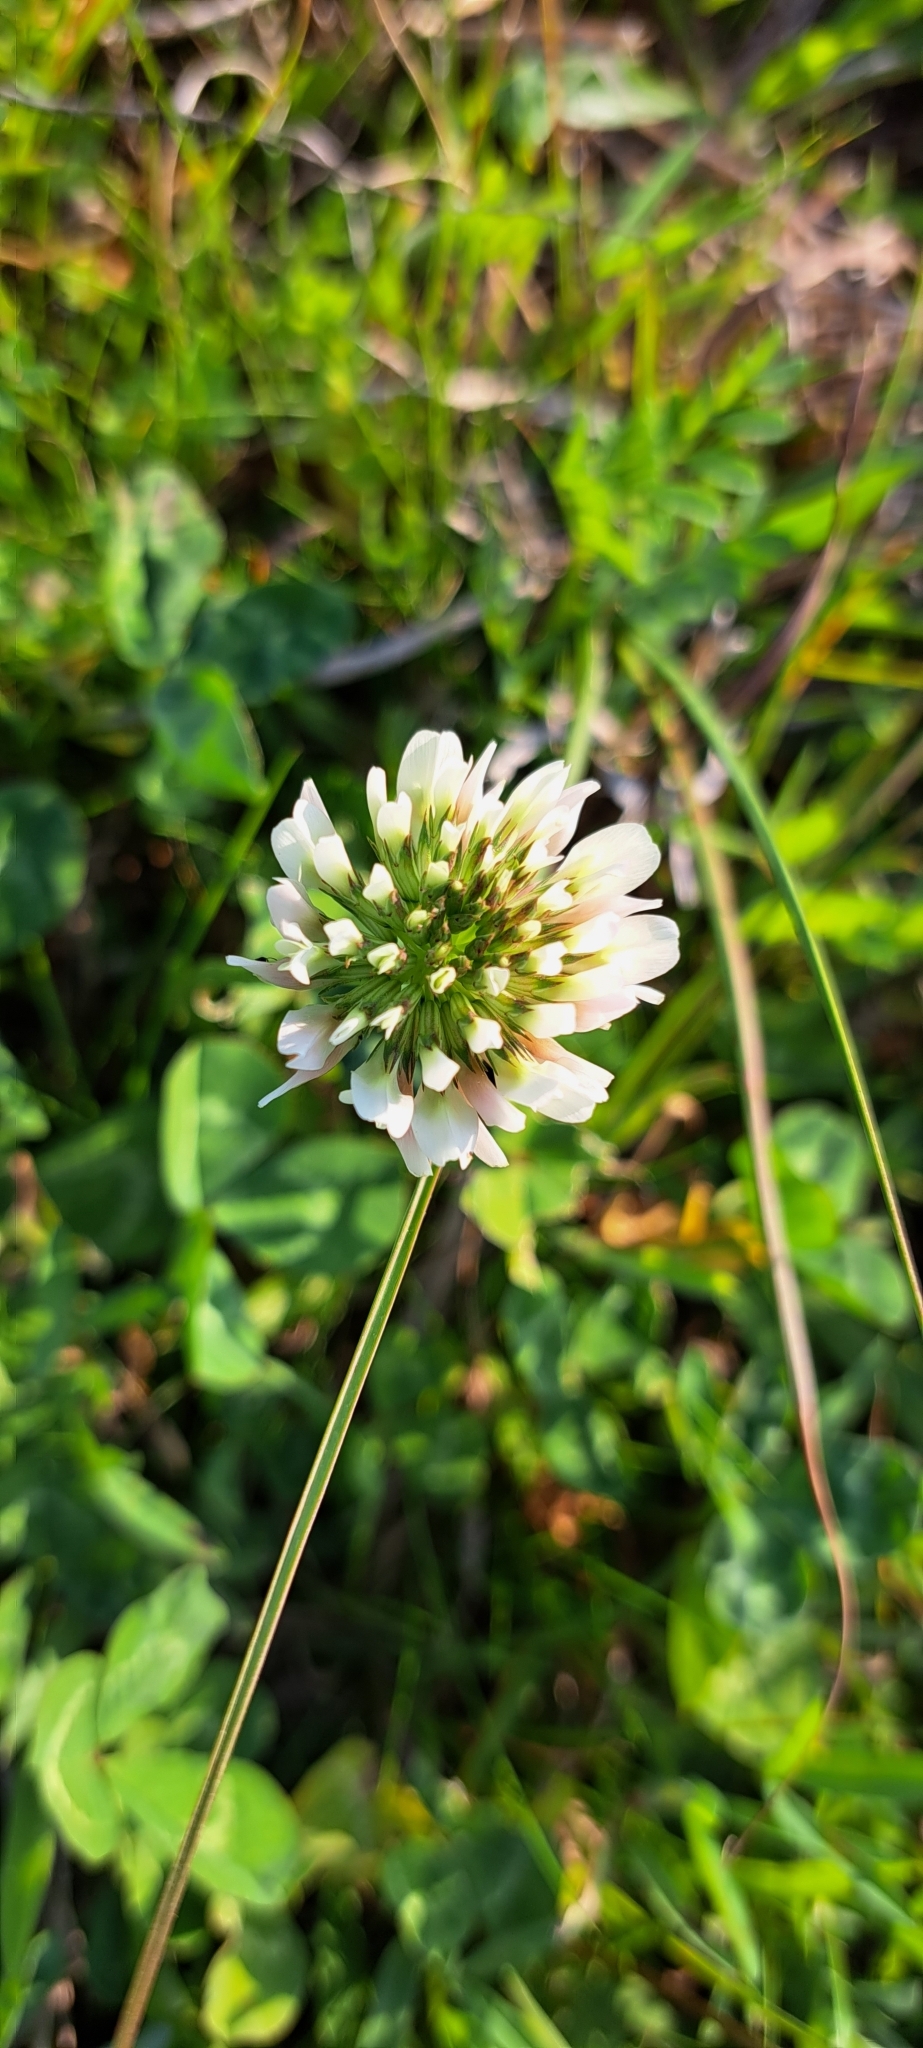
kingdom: Plantae
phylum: Tracheophyta
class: Magnoliopsida
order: Fabales
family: Fabaceae
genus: Trifolium
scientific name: Trifolium repens
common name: White clover
